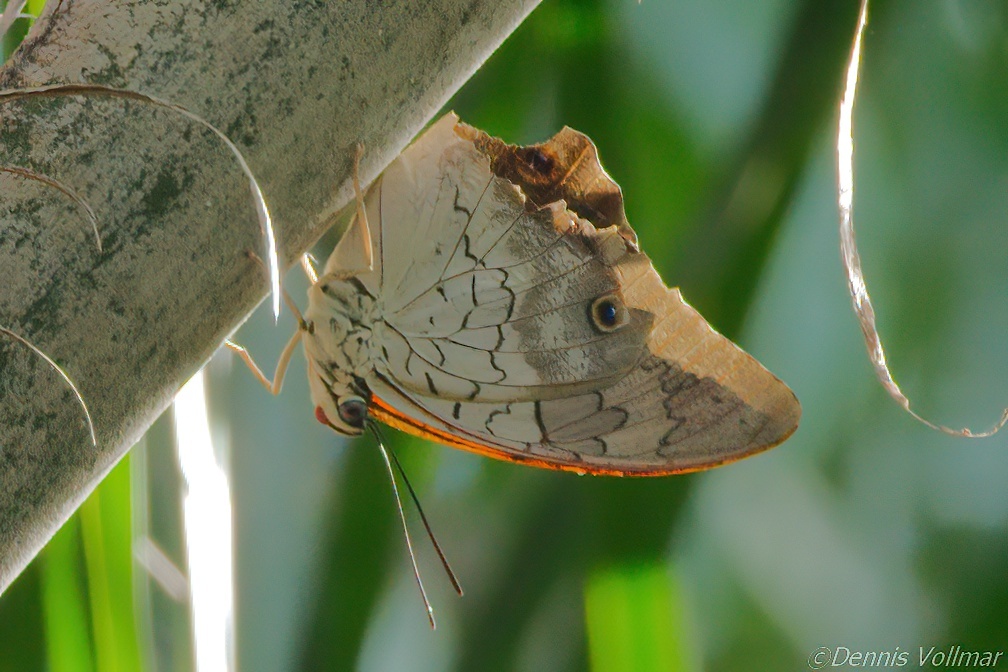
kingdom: Animalia
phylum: Arthropoda
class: Insecta
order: Lepidoptera
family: Nymphalidae
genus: Prepona
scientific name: Prepona laertes
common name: Butterfly
